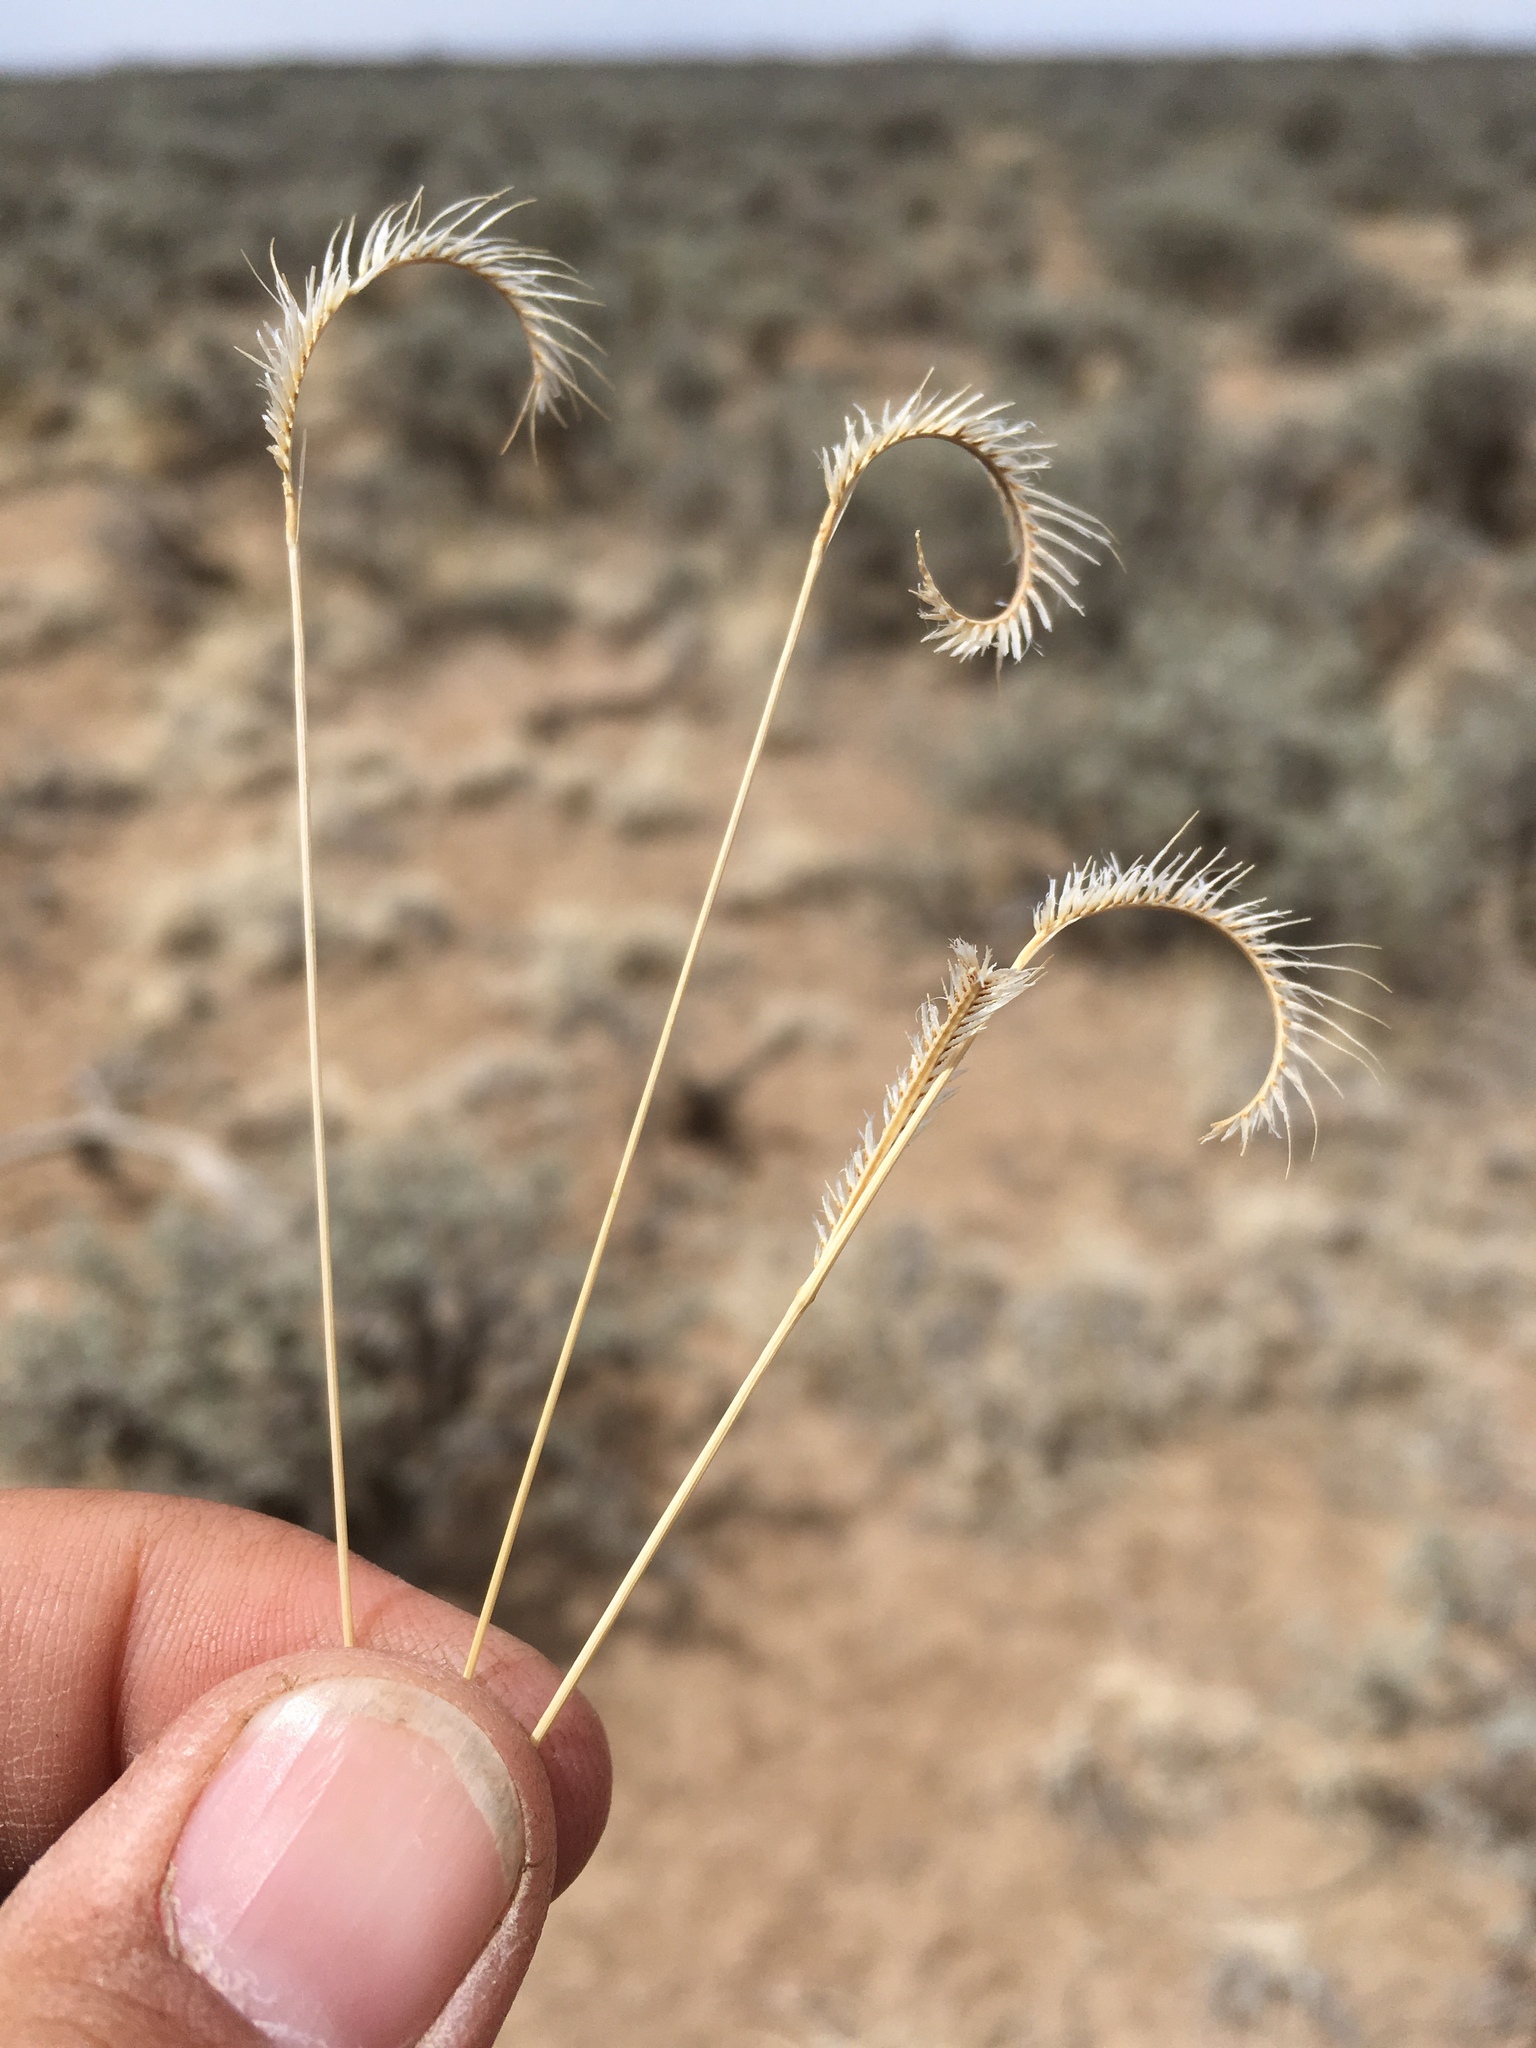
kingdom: Plantae
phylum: Tracheophyta
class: Liliopsida
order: Poales
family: Poaceae
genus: Bouteloua
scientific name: Bouteloua gracilis
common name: Blue grama
